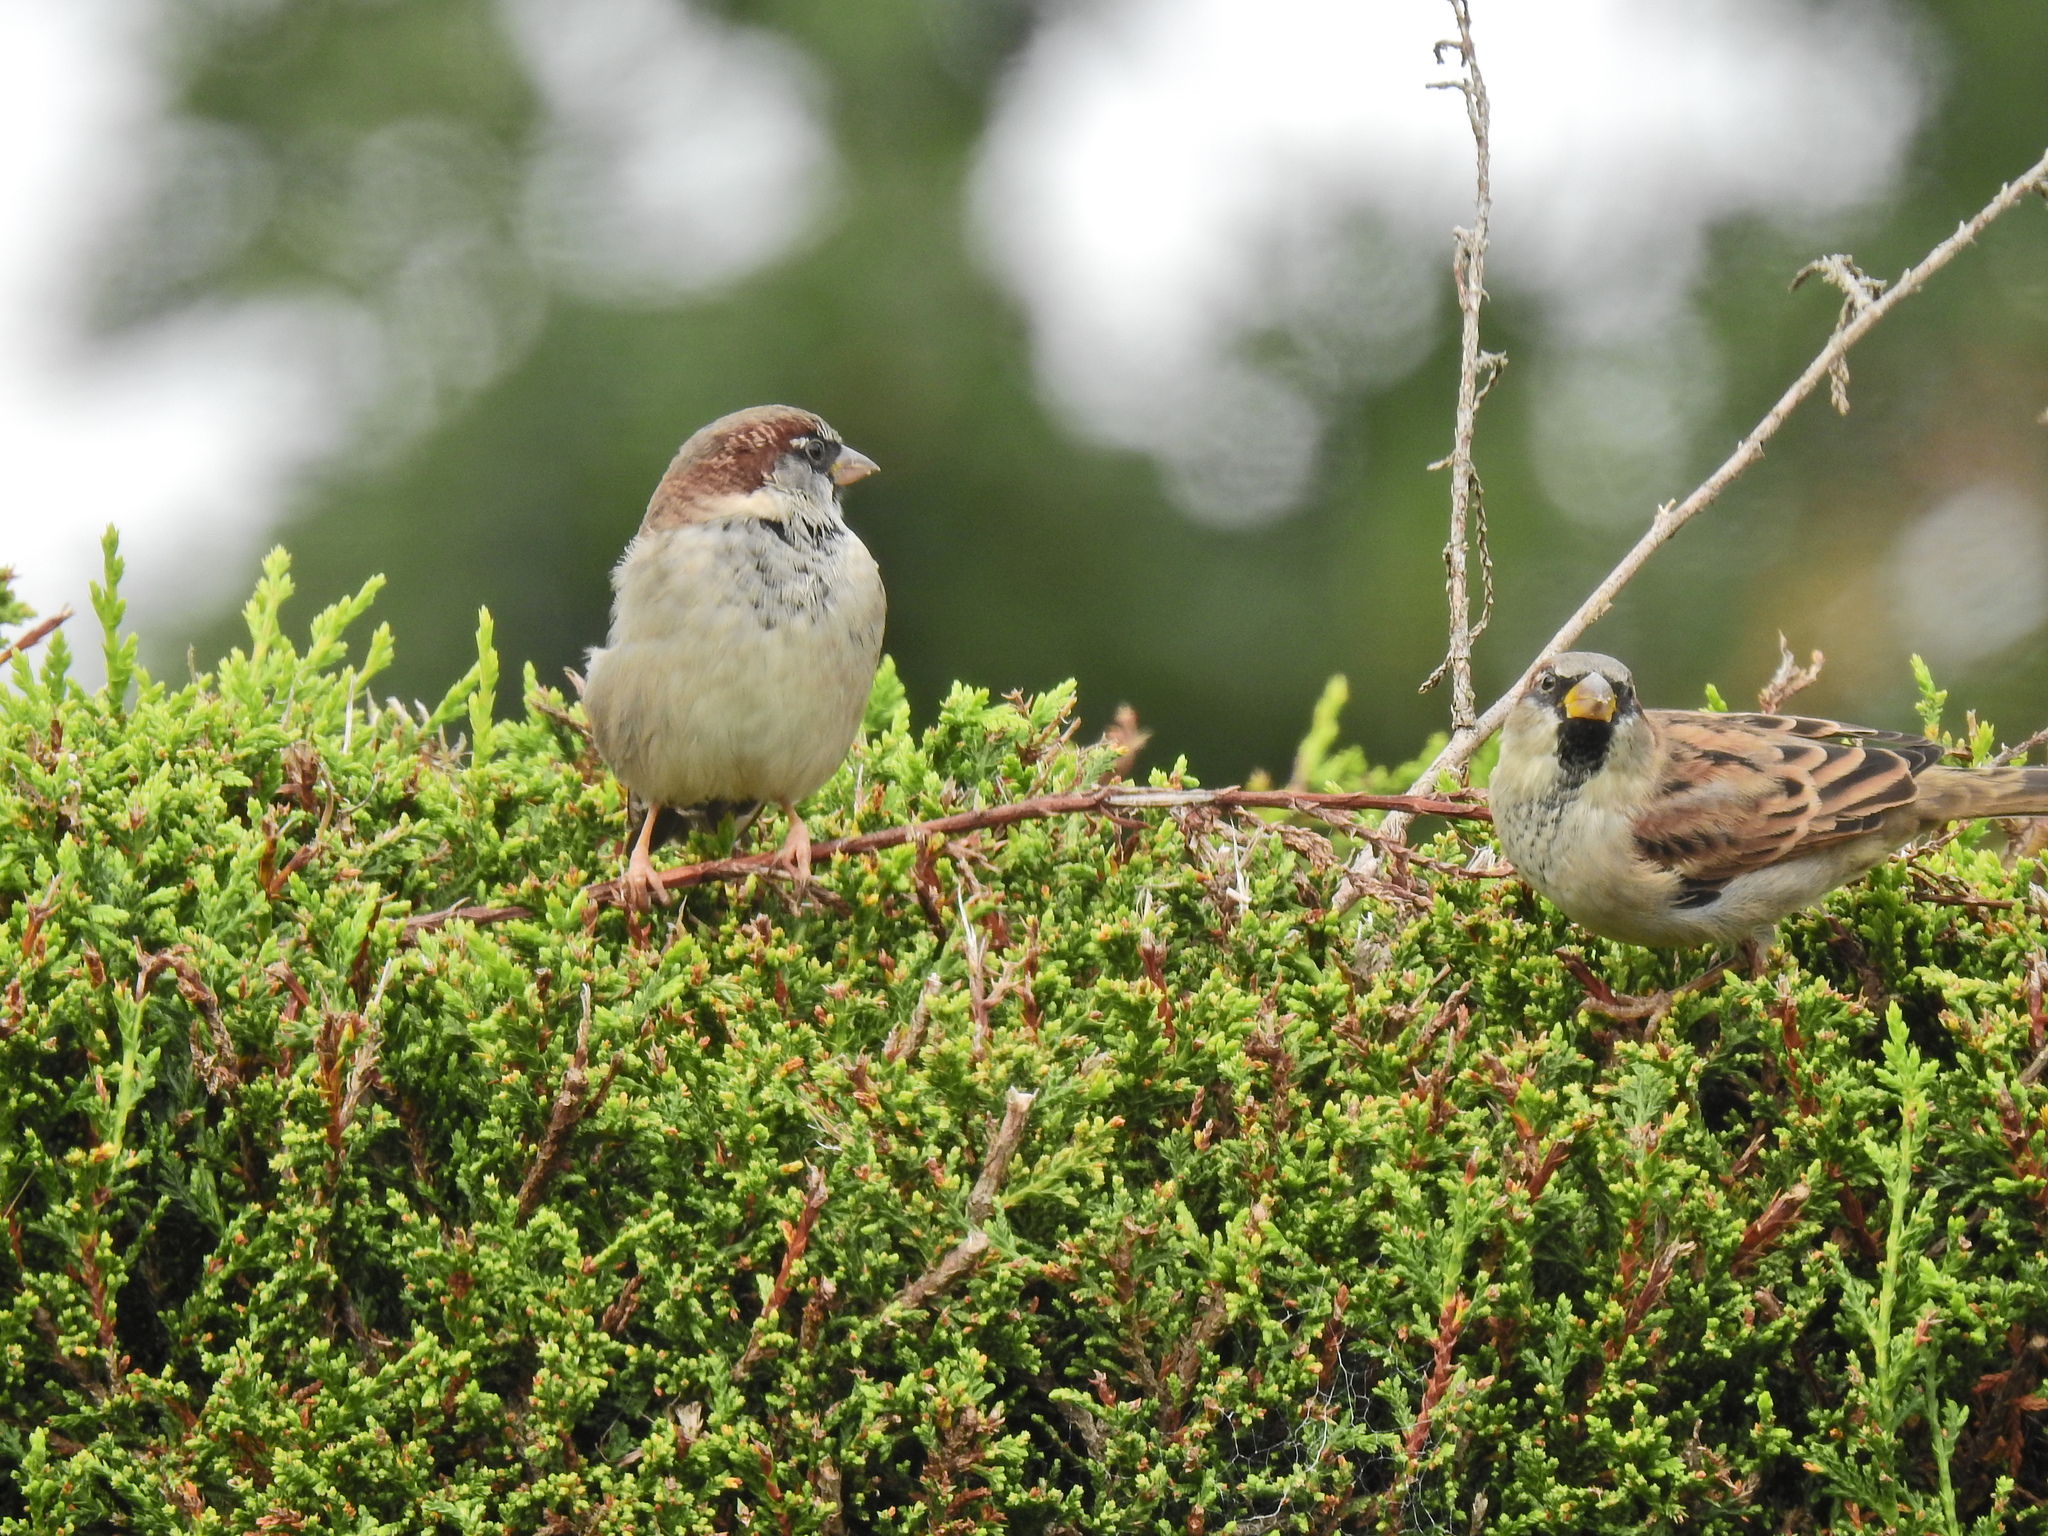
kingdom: Animalia
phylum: Chordata
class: Aves
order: Passeriformes
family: Passeridae
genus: Passer
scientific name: Passer domesticus
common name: House sparrow
